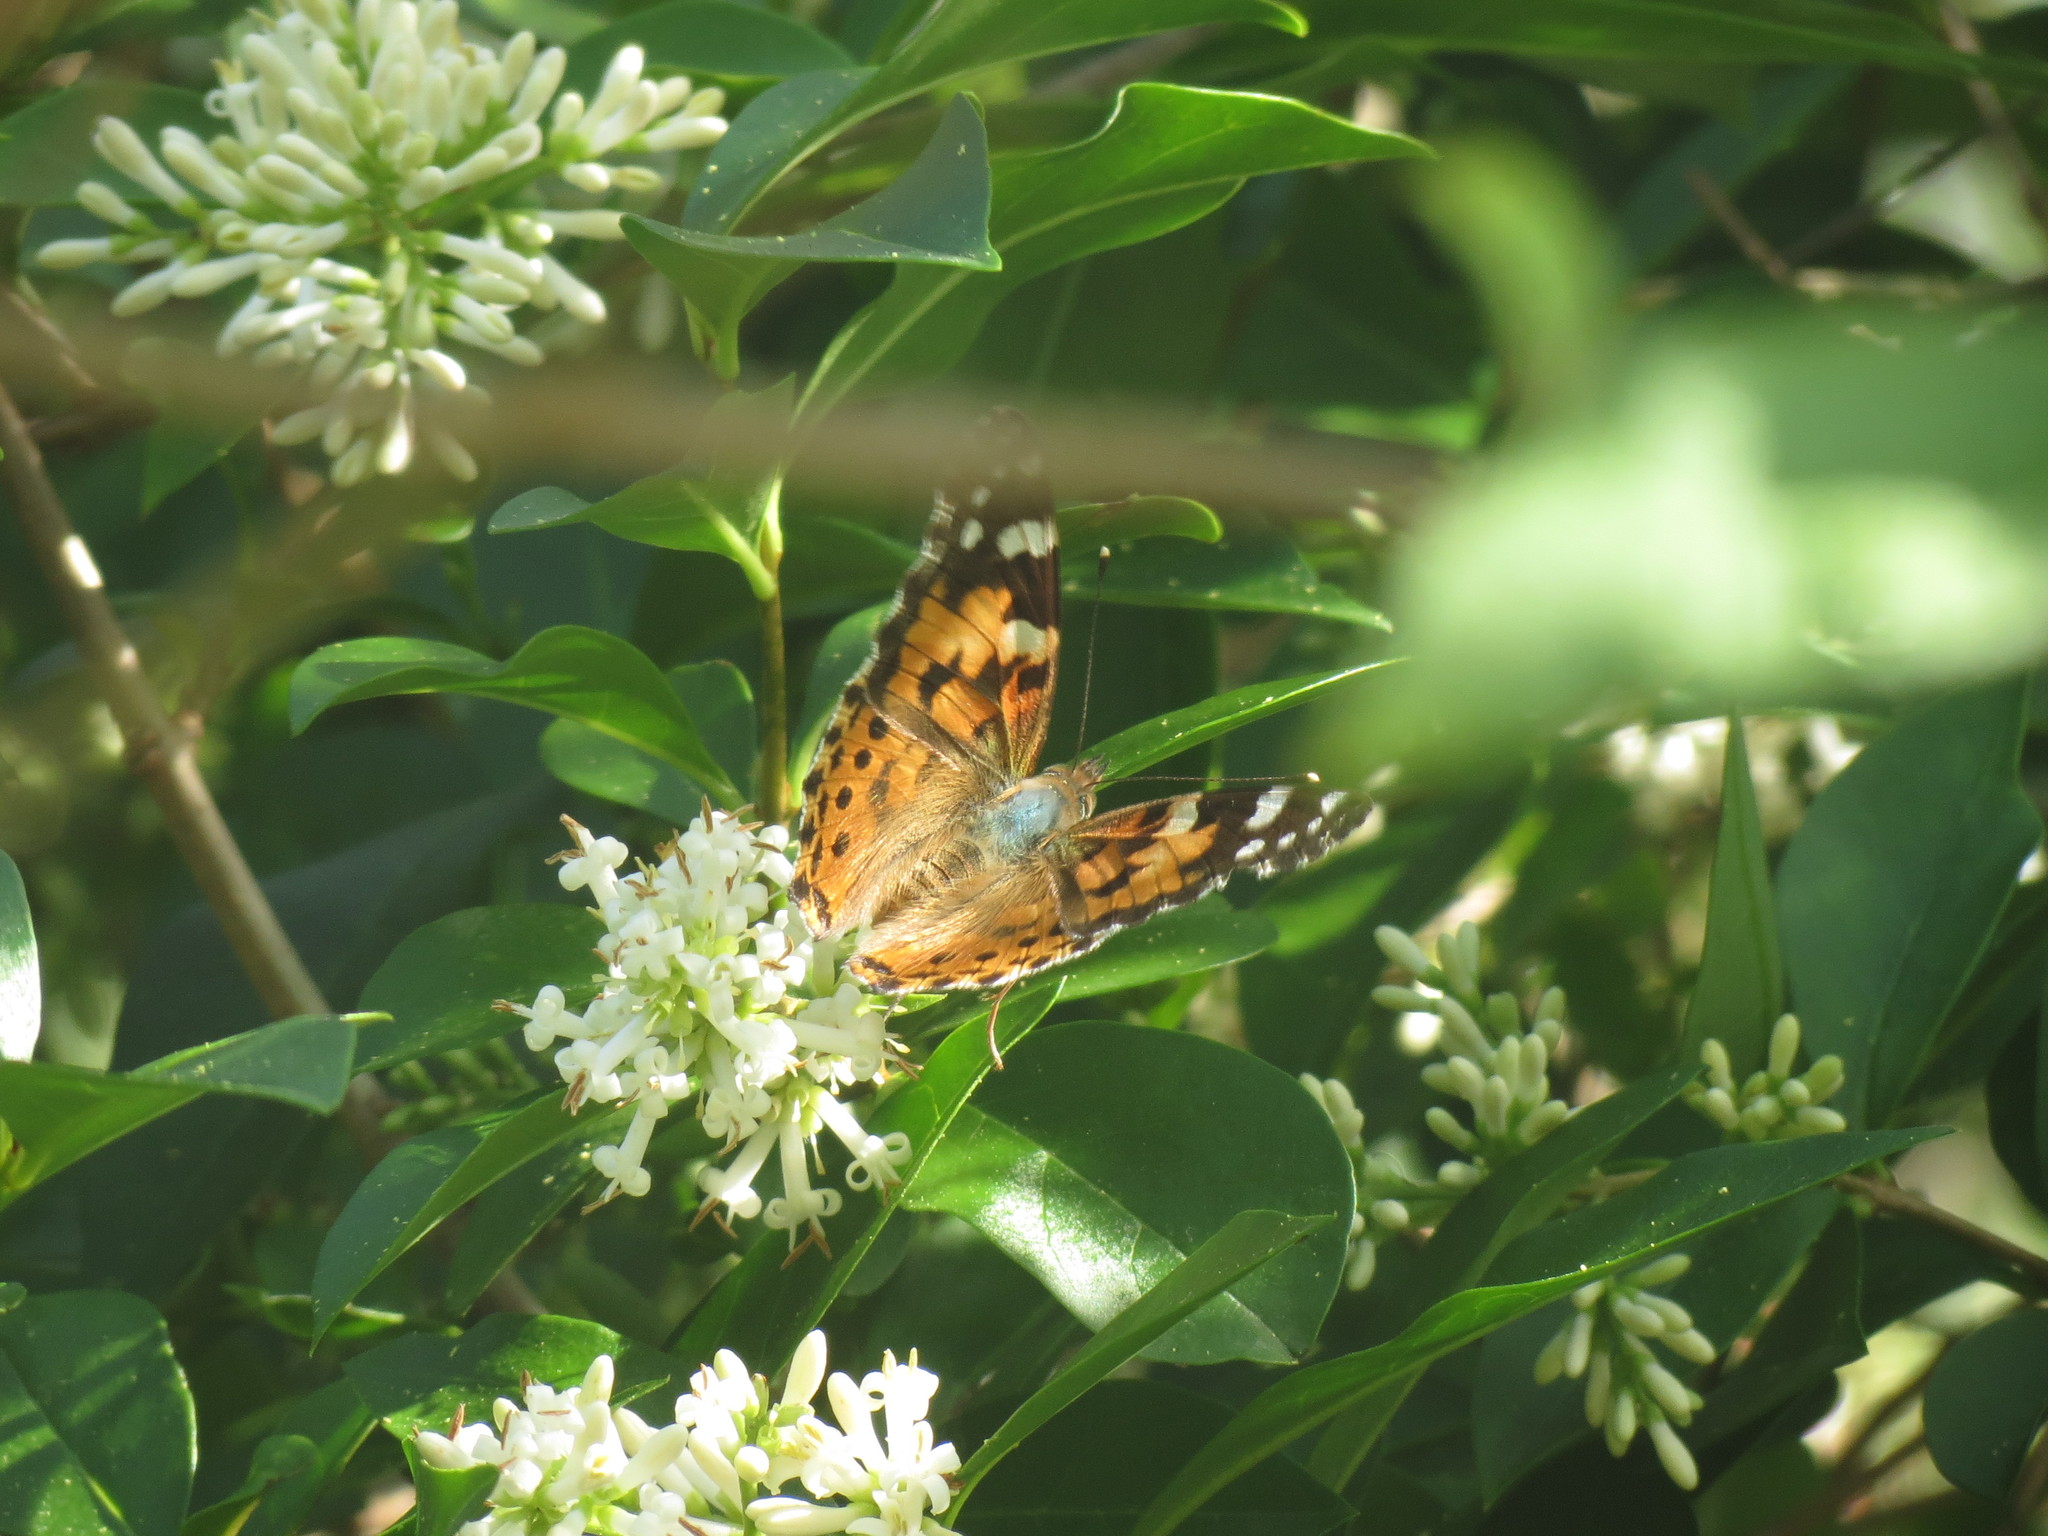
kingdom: Animalia
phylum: Arthropoda
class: Insecta
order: Lepidoptera
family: Nymphalidae
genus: Vanessa
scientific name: Vanessa cardui
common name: Painted lady
